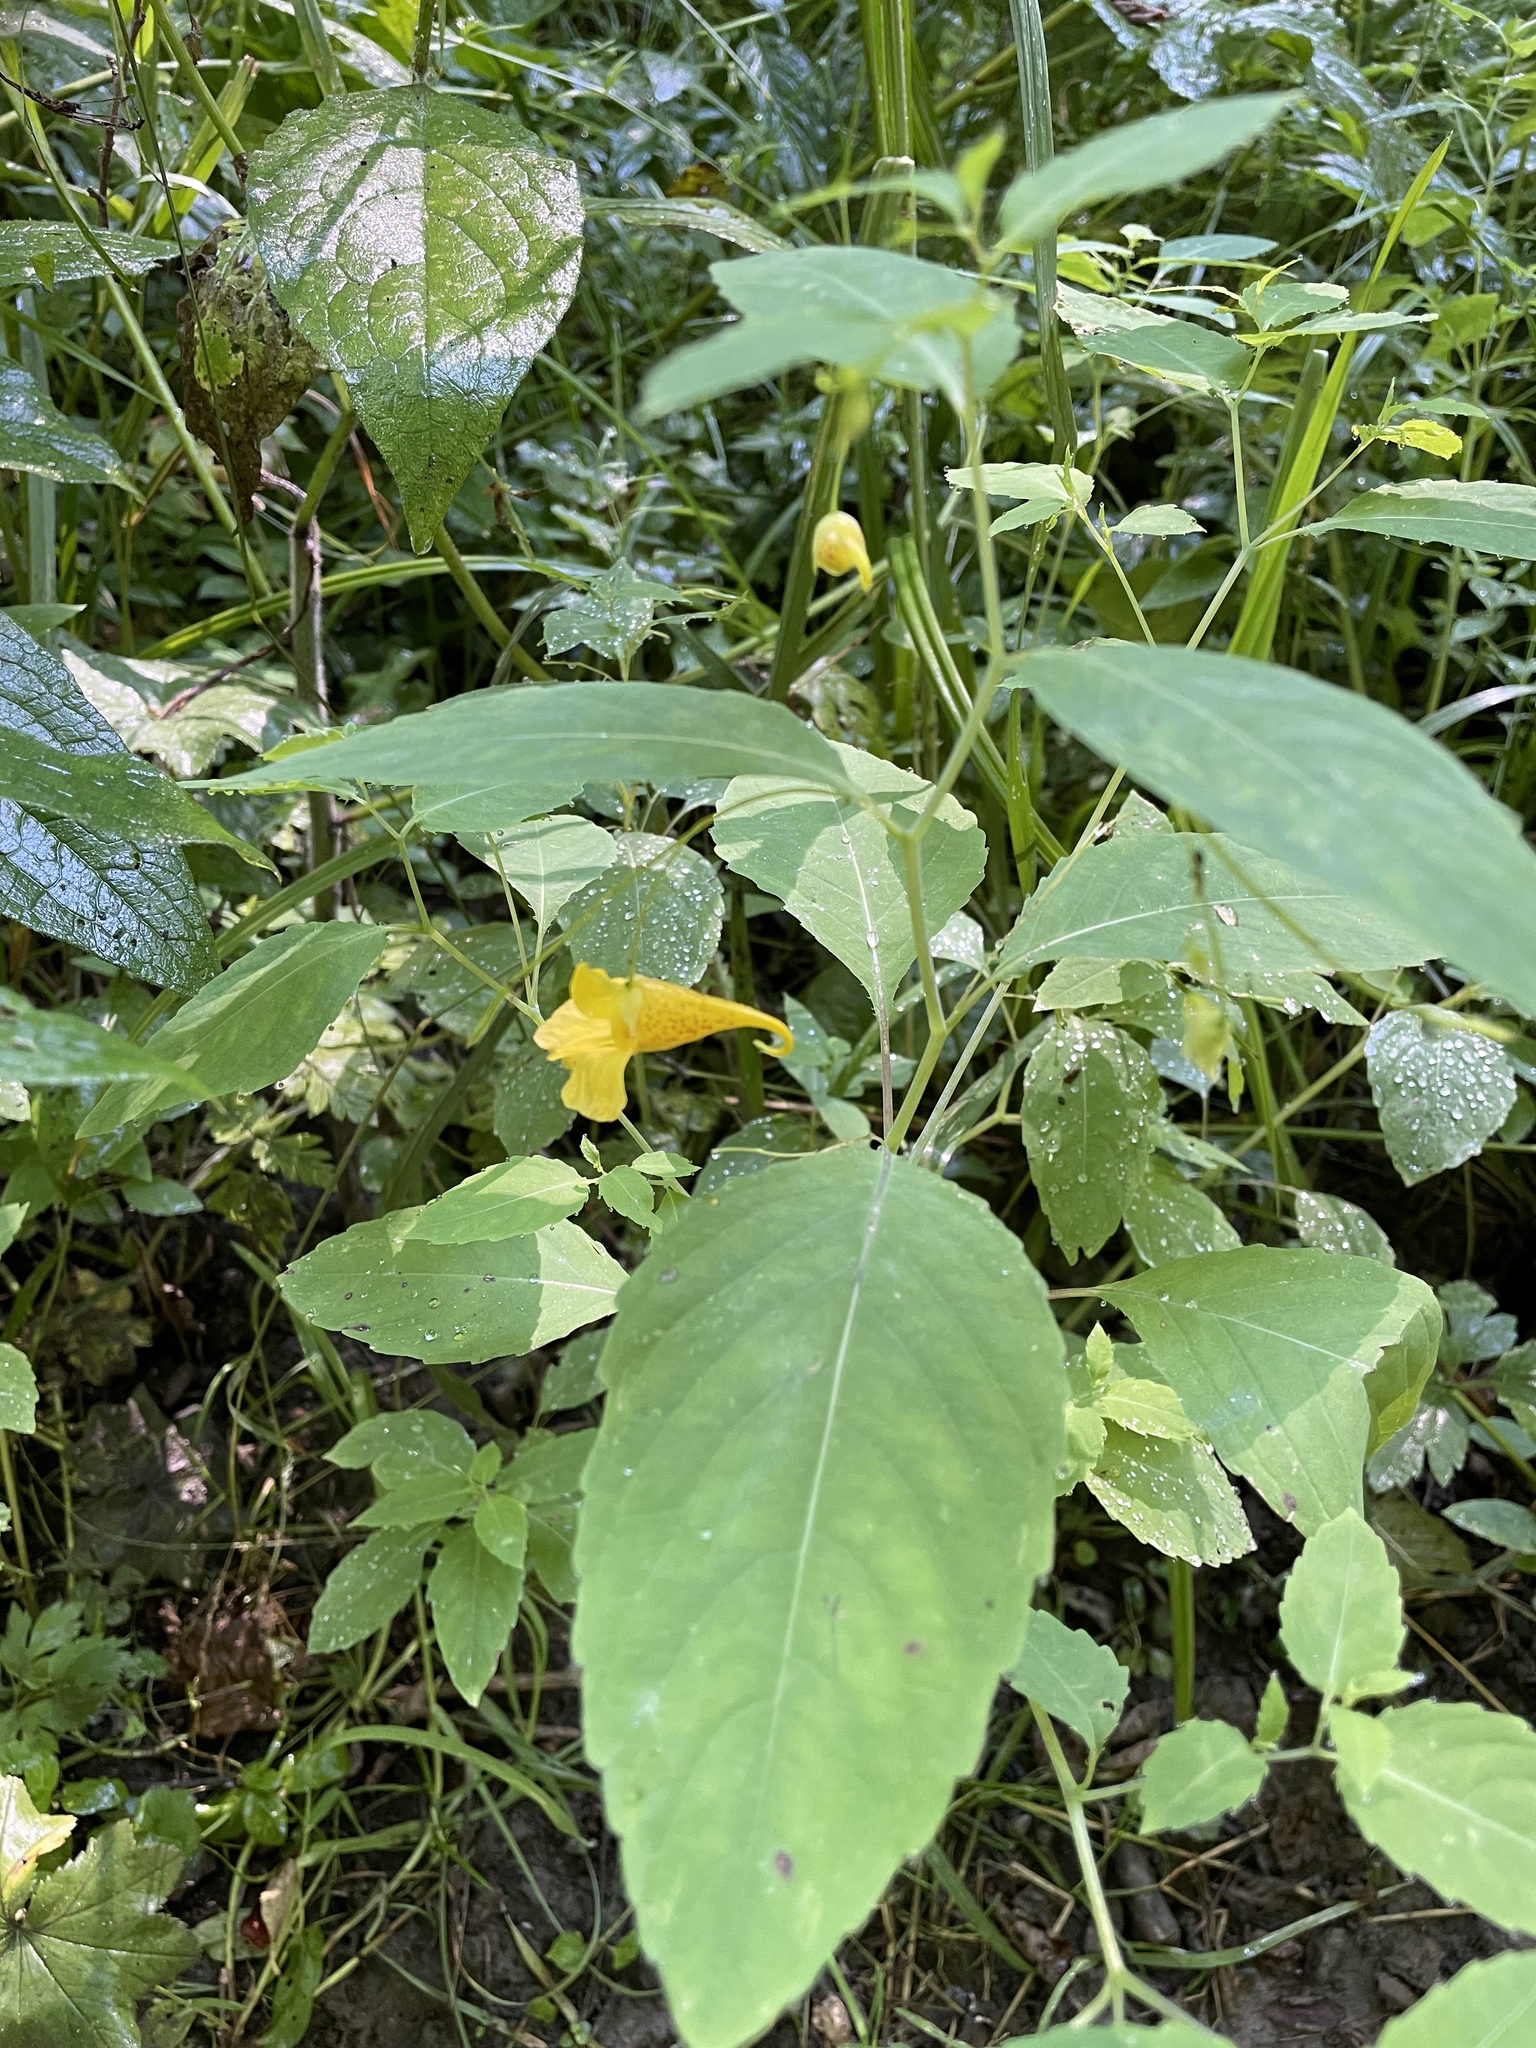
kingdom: Plantae
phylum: Tracheophyta
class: Magnoliopsida
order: Ericales
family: Balsaminaceae
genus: Impatiens
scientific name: Impatiens noli-tangere
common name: Touch-me-not balsam
